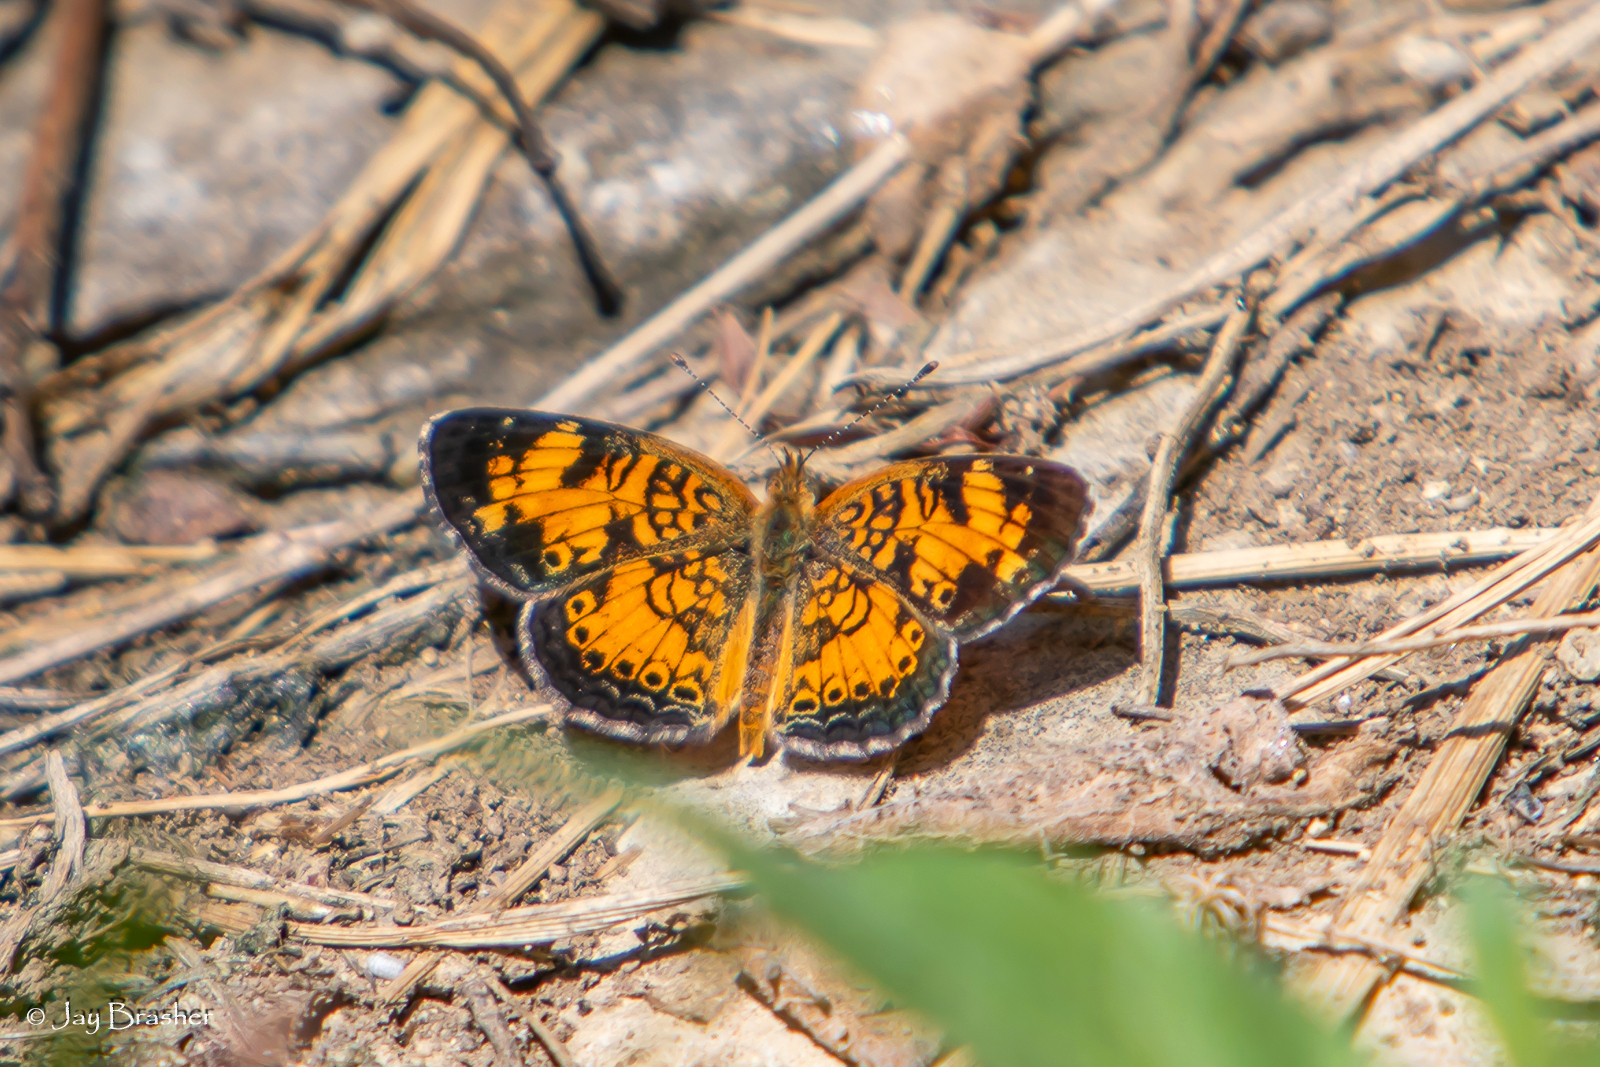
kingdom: Animalia
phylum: Arthropoda
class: Insecta
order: Lepidoptera
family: Nymphalidae
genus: Phyciodes
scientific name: Phyciodes tharos
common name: Pearl crescent
